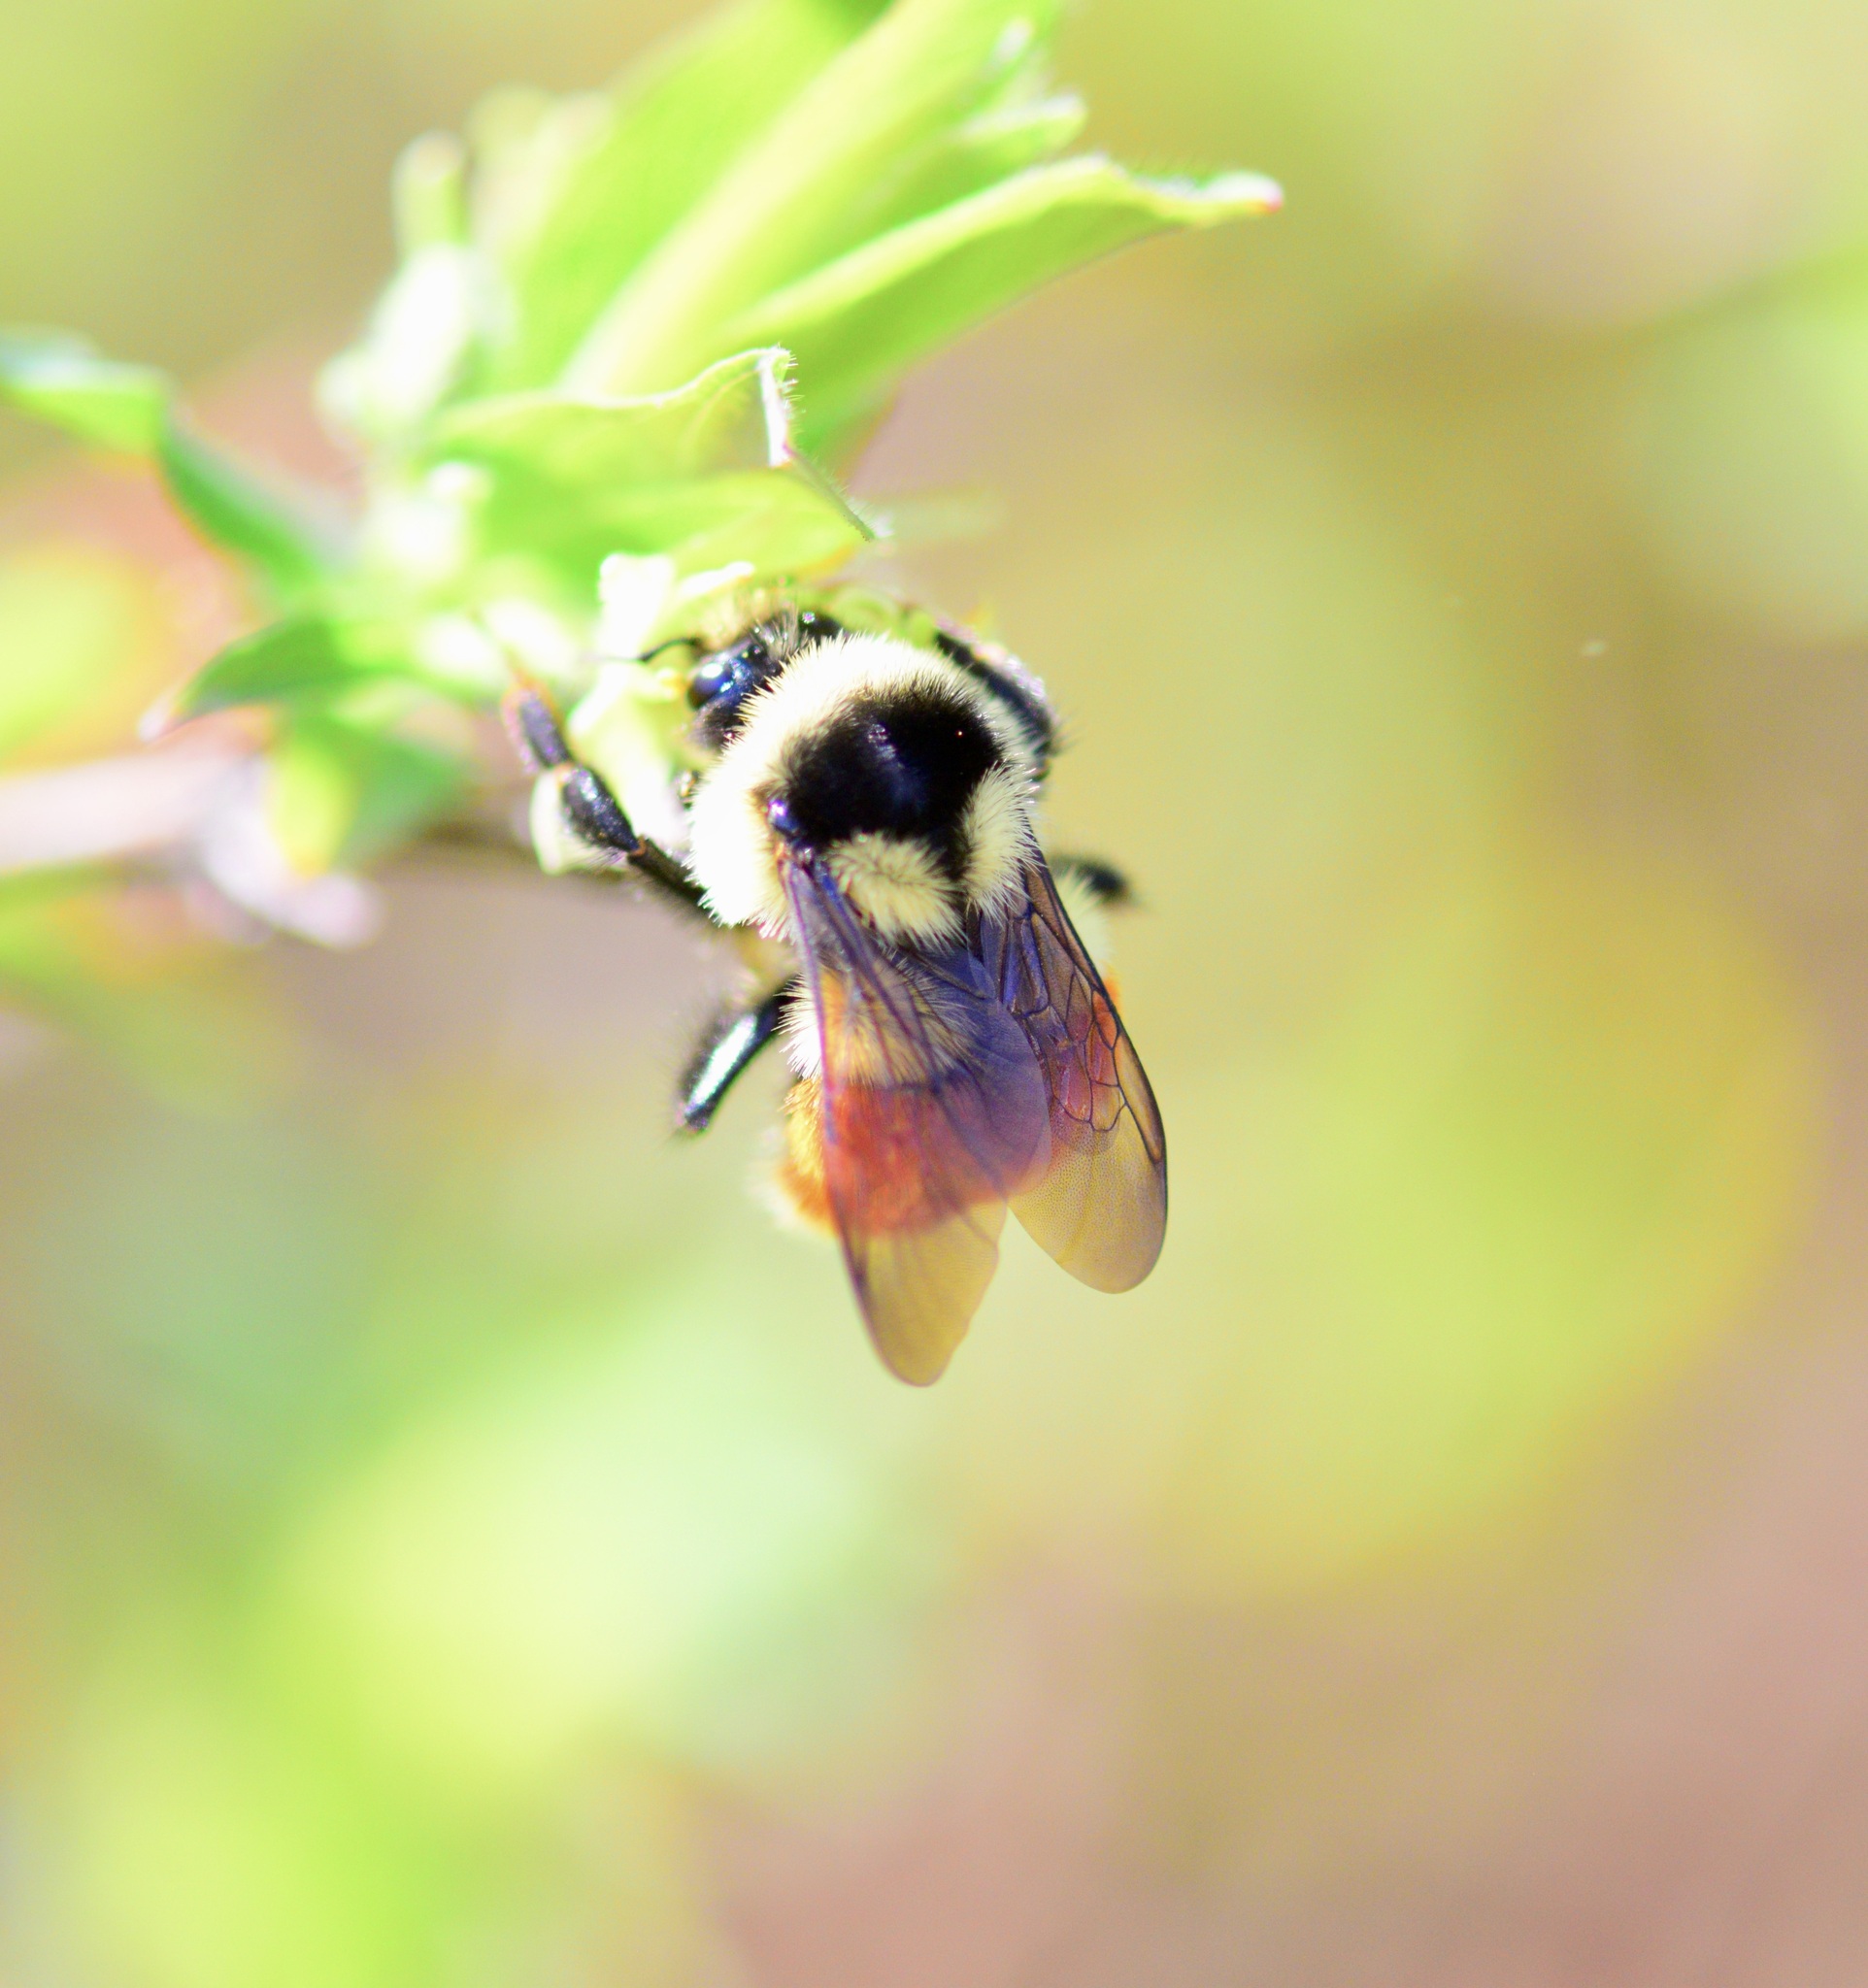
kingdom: Animalia
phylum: Arthropoda
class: Insecta
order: Hymenoptera
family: Apidae
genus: Bombus
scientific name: Bombus ternarius
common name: Tri-colored bumble bee
